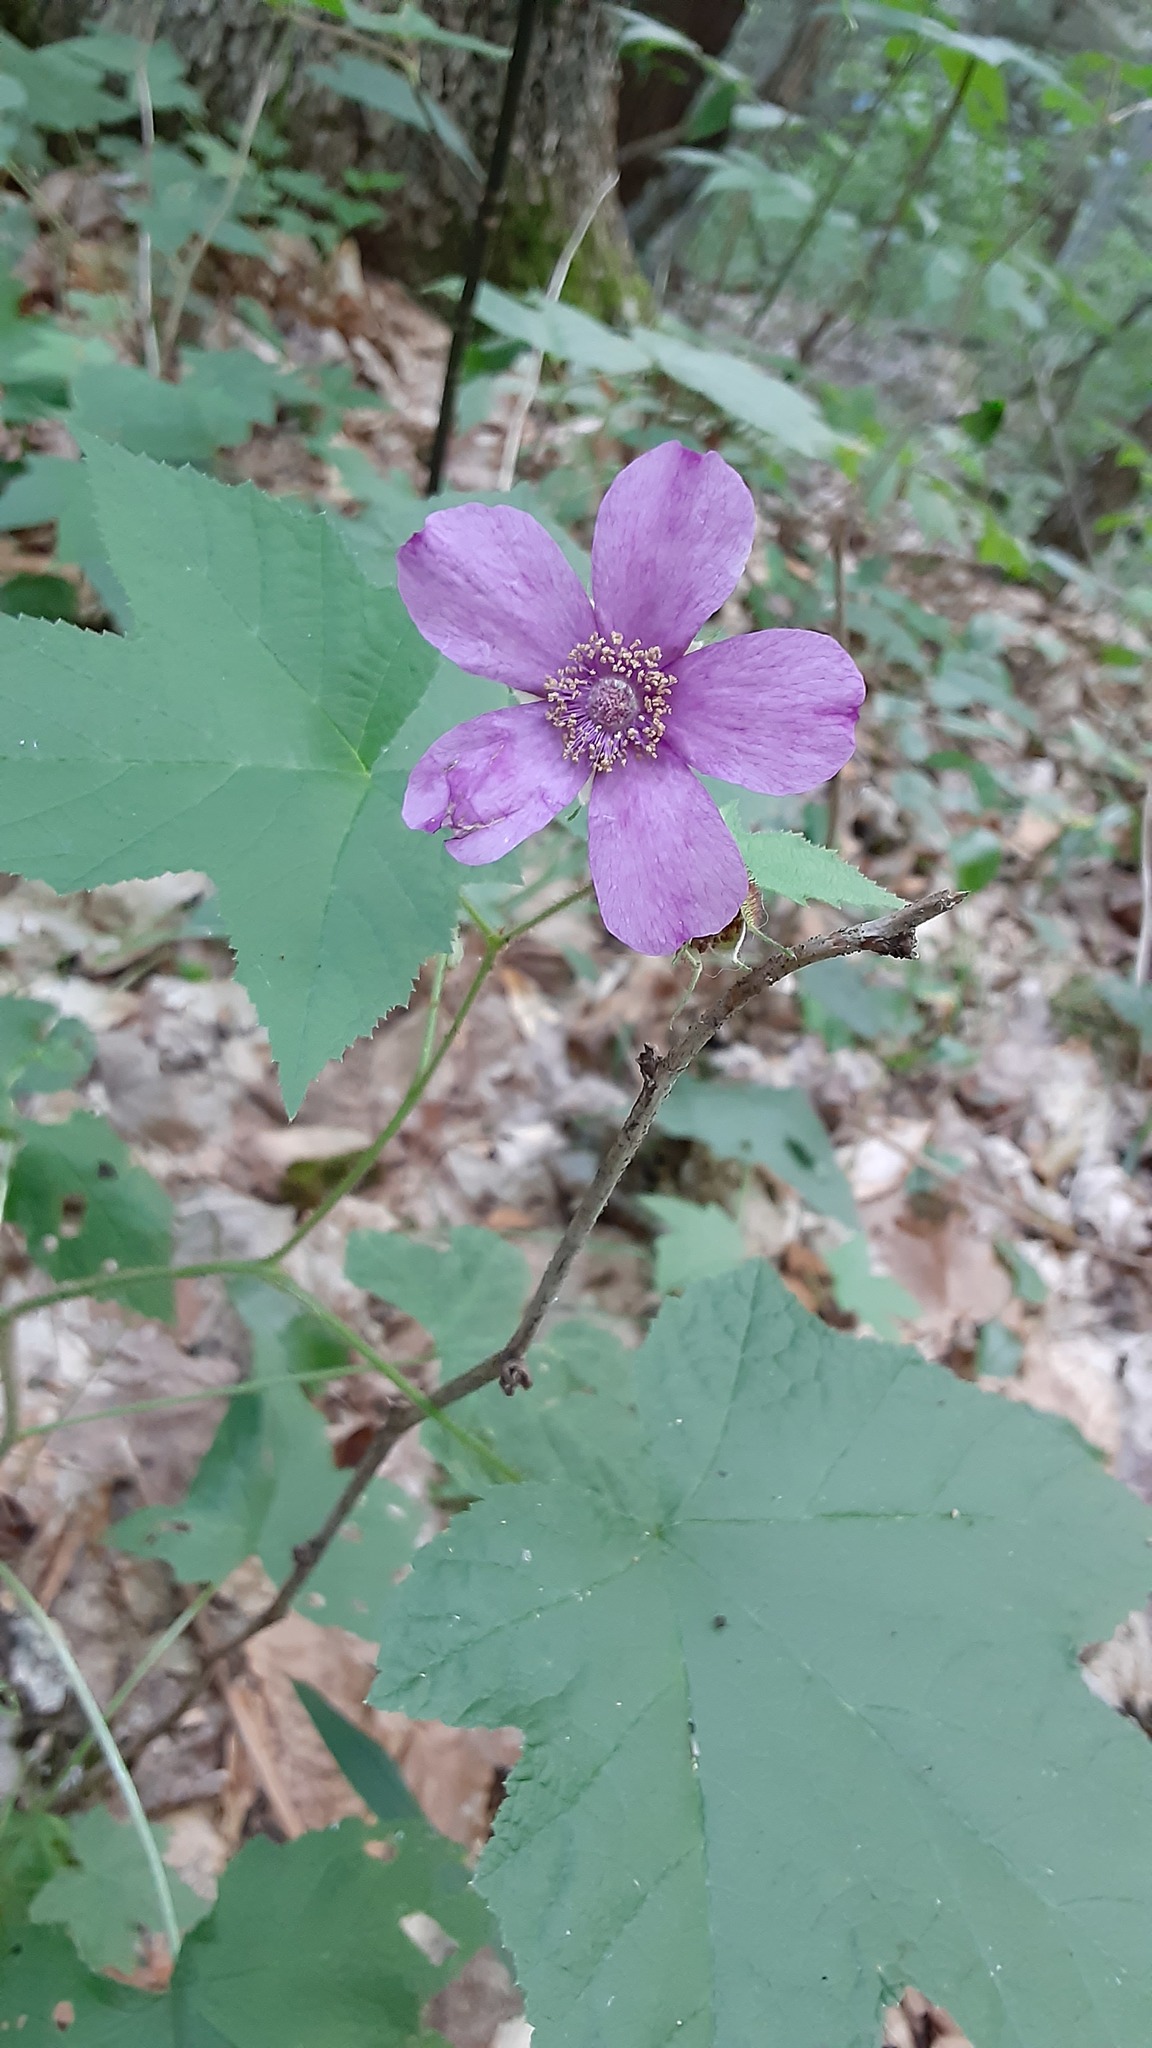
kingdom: Plantae
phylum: Tracheophyta
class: Magnoliopsida
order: Rosales
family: Rosaceae
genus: Rubus
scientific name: Rubus odoratus
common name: Purple-flowered raspberry
